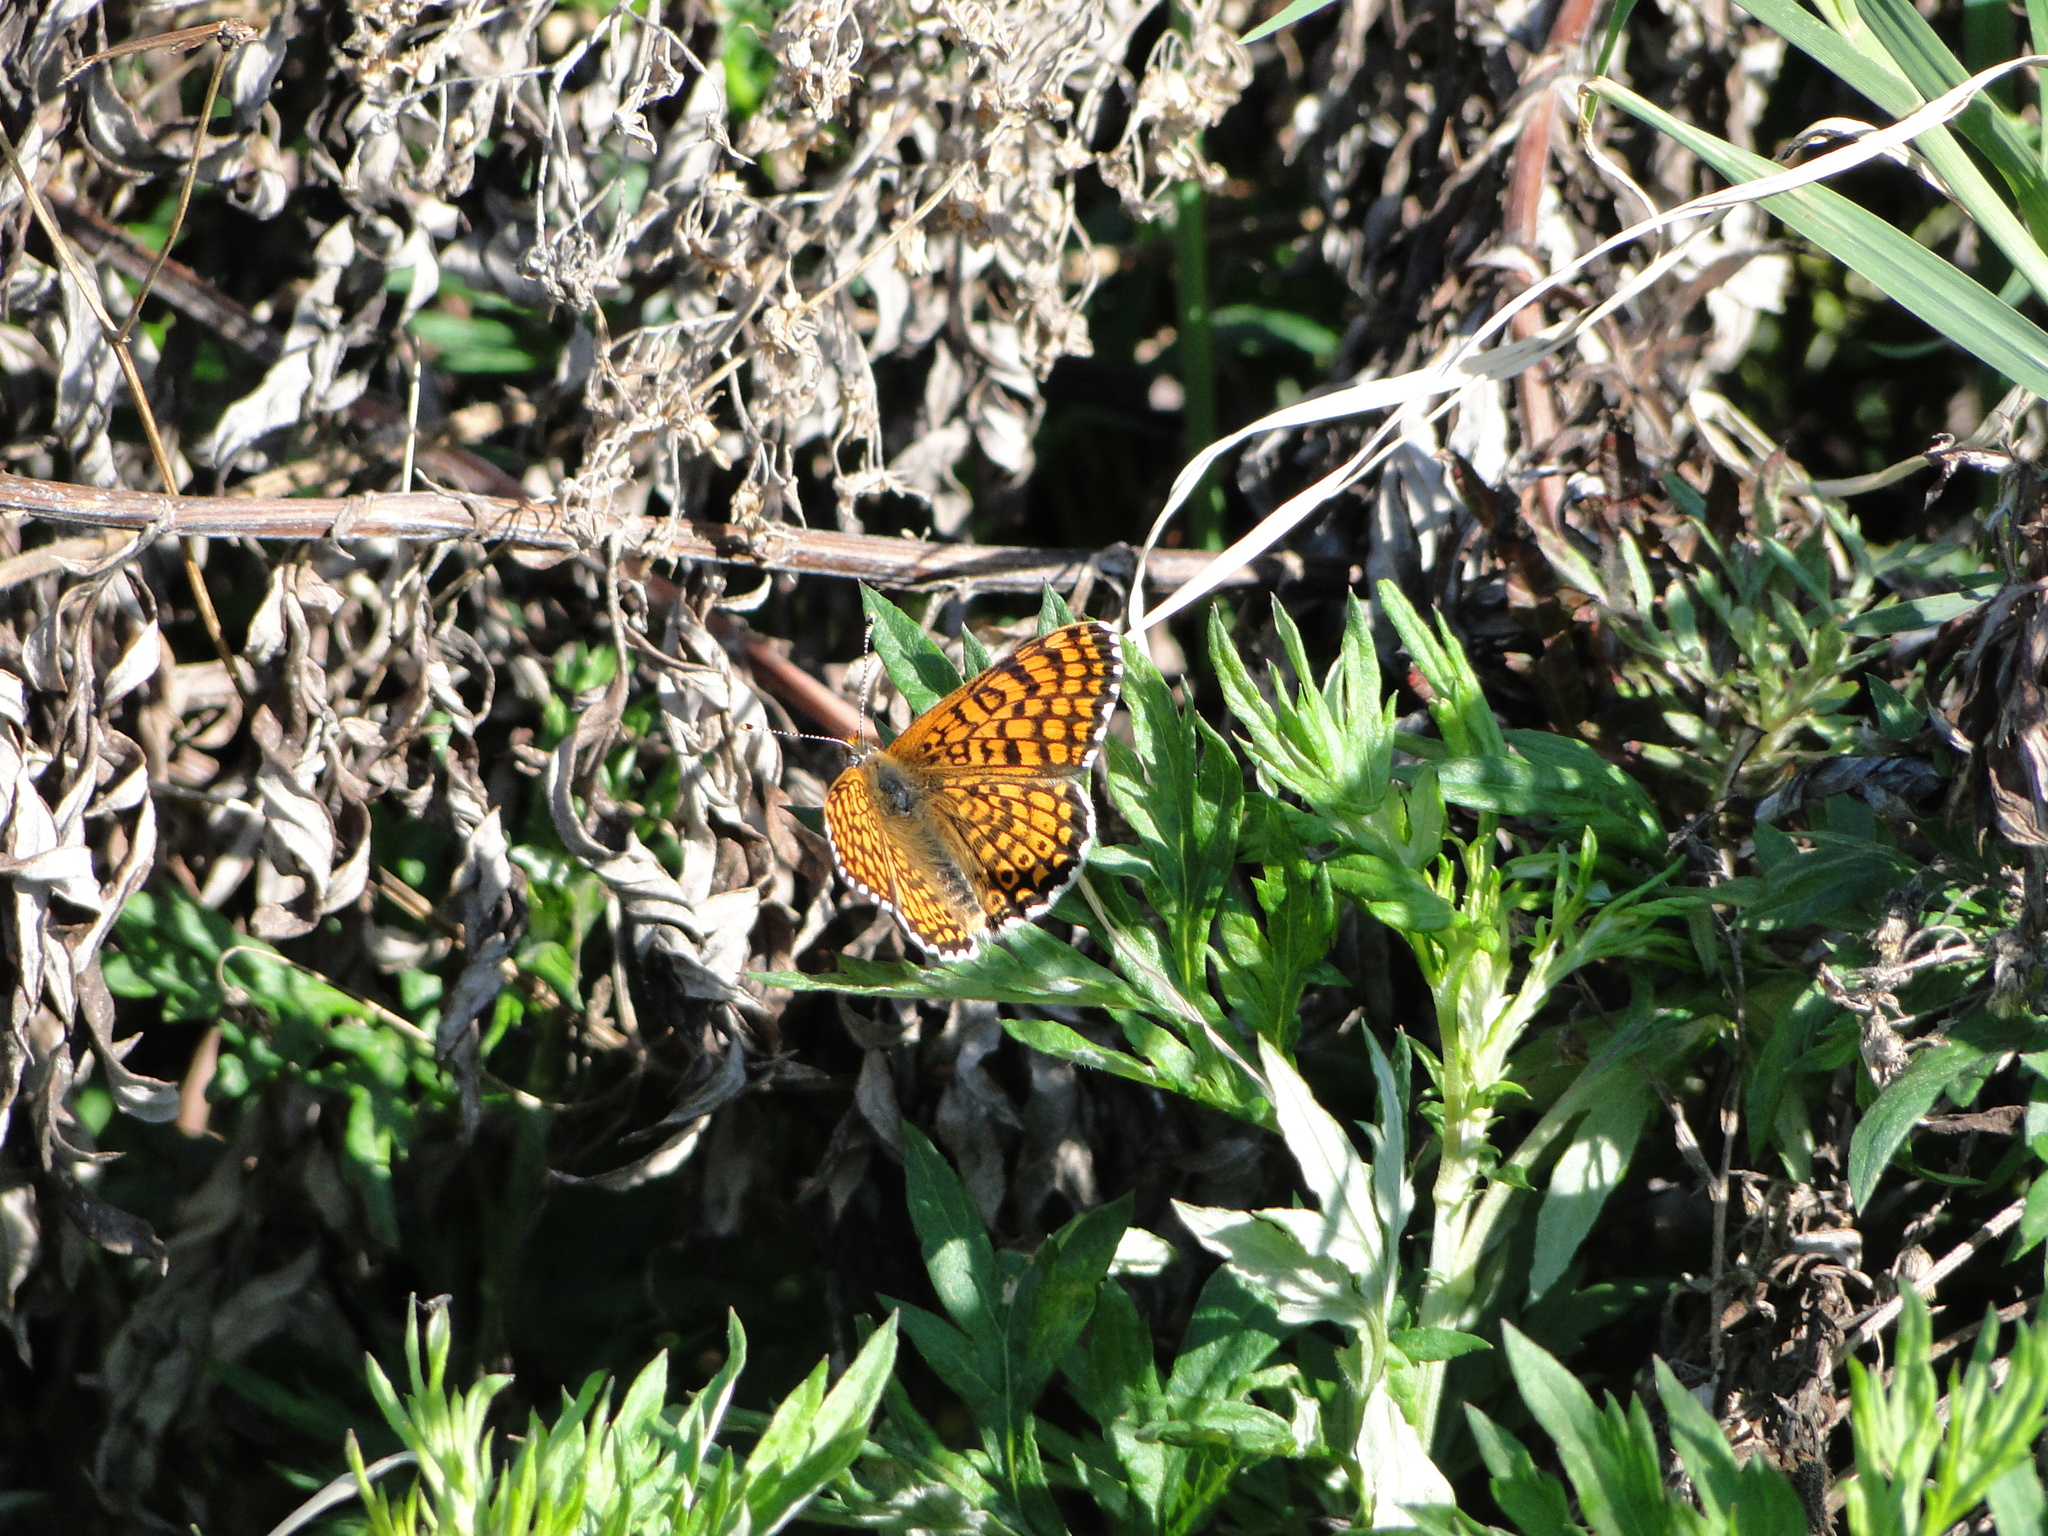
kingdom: Animalia
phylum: Arthropoda
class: Insecta
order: Lepidoptera
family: Nymphalidae
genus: Melitaea
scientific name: Melitaea cinxia
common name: Glanville fritillary
